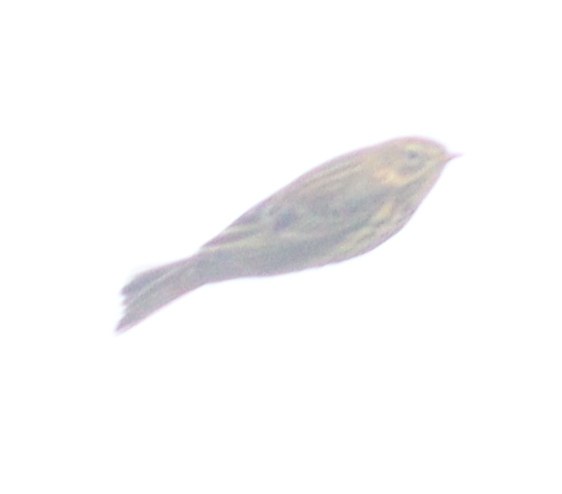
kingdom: Animalia
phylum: Chordata
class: Aves
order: Passeriformes
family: Motacillidae
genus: Anthus
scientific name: Anthus pratensis
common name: Meadow pipit
